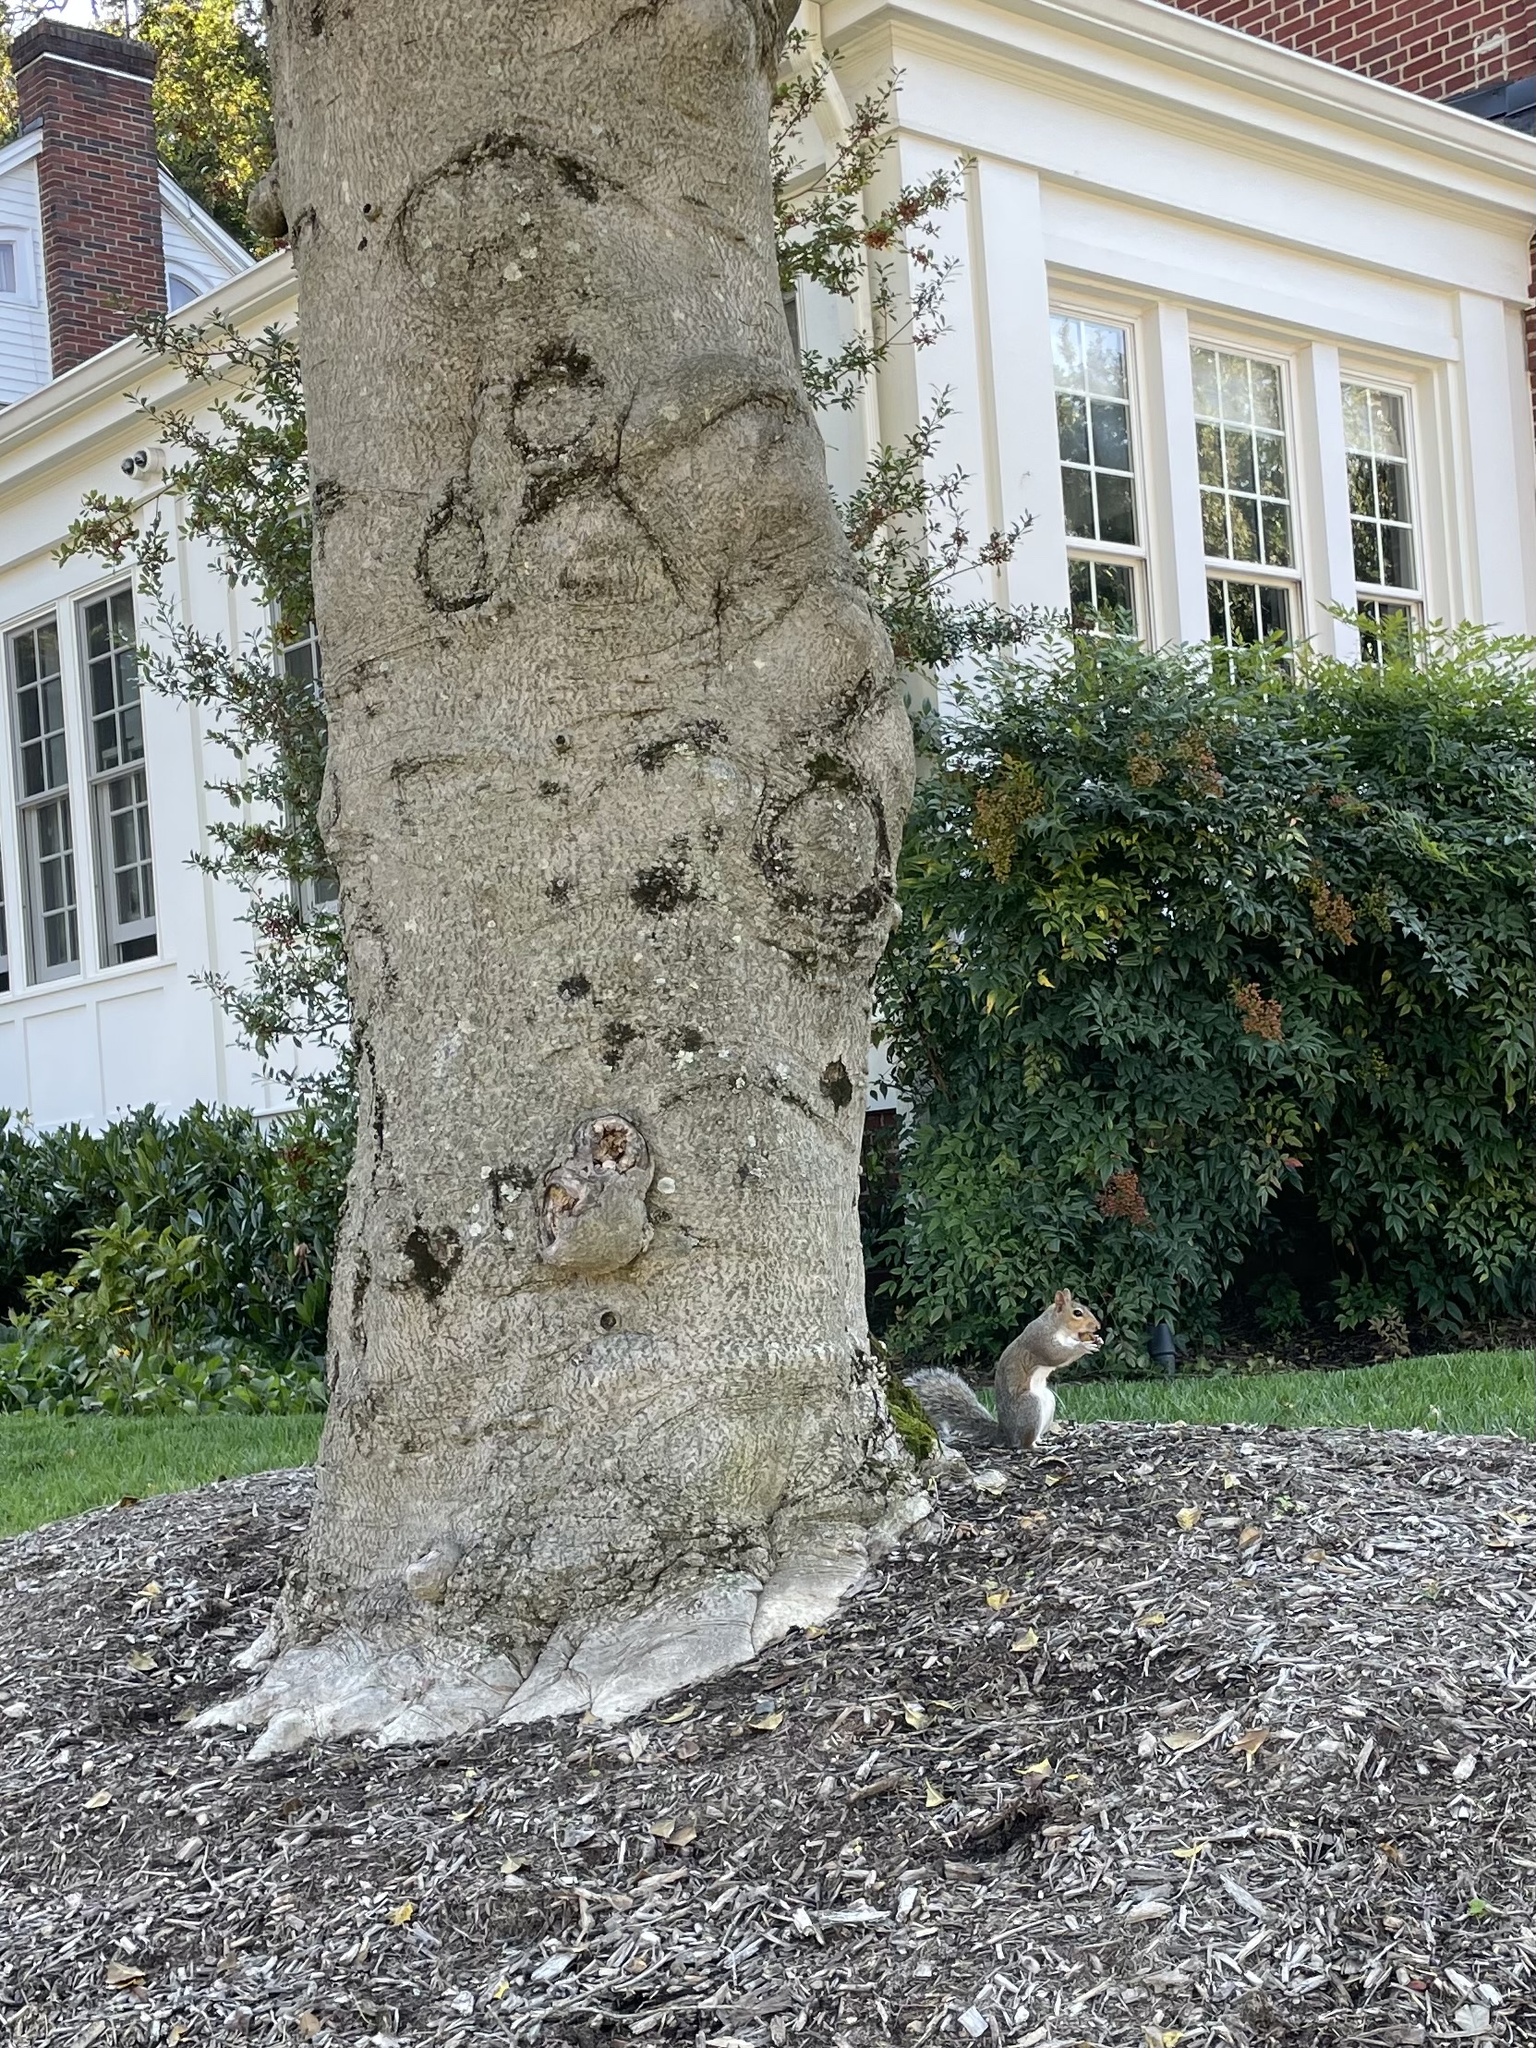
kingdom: Animalia
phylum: Chordata
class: Mammalia
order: Rodentia
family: Sciuridae
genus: Sciurus
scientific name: Sciurus carolinensis
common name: Eastern gray squirrel
